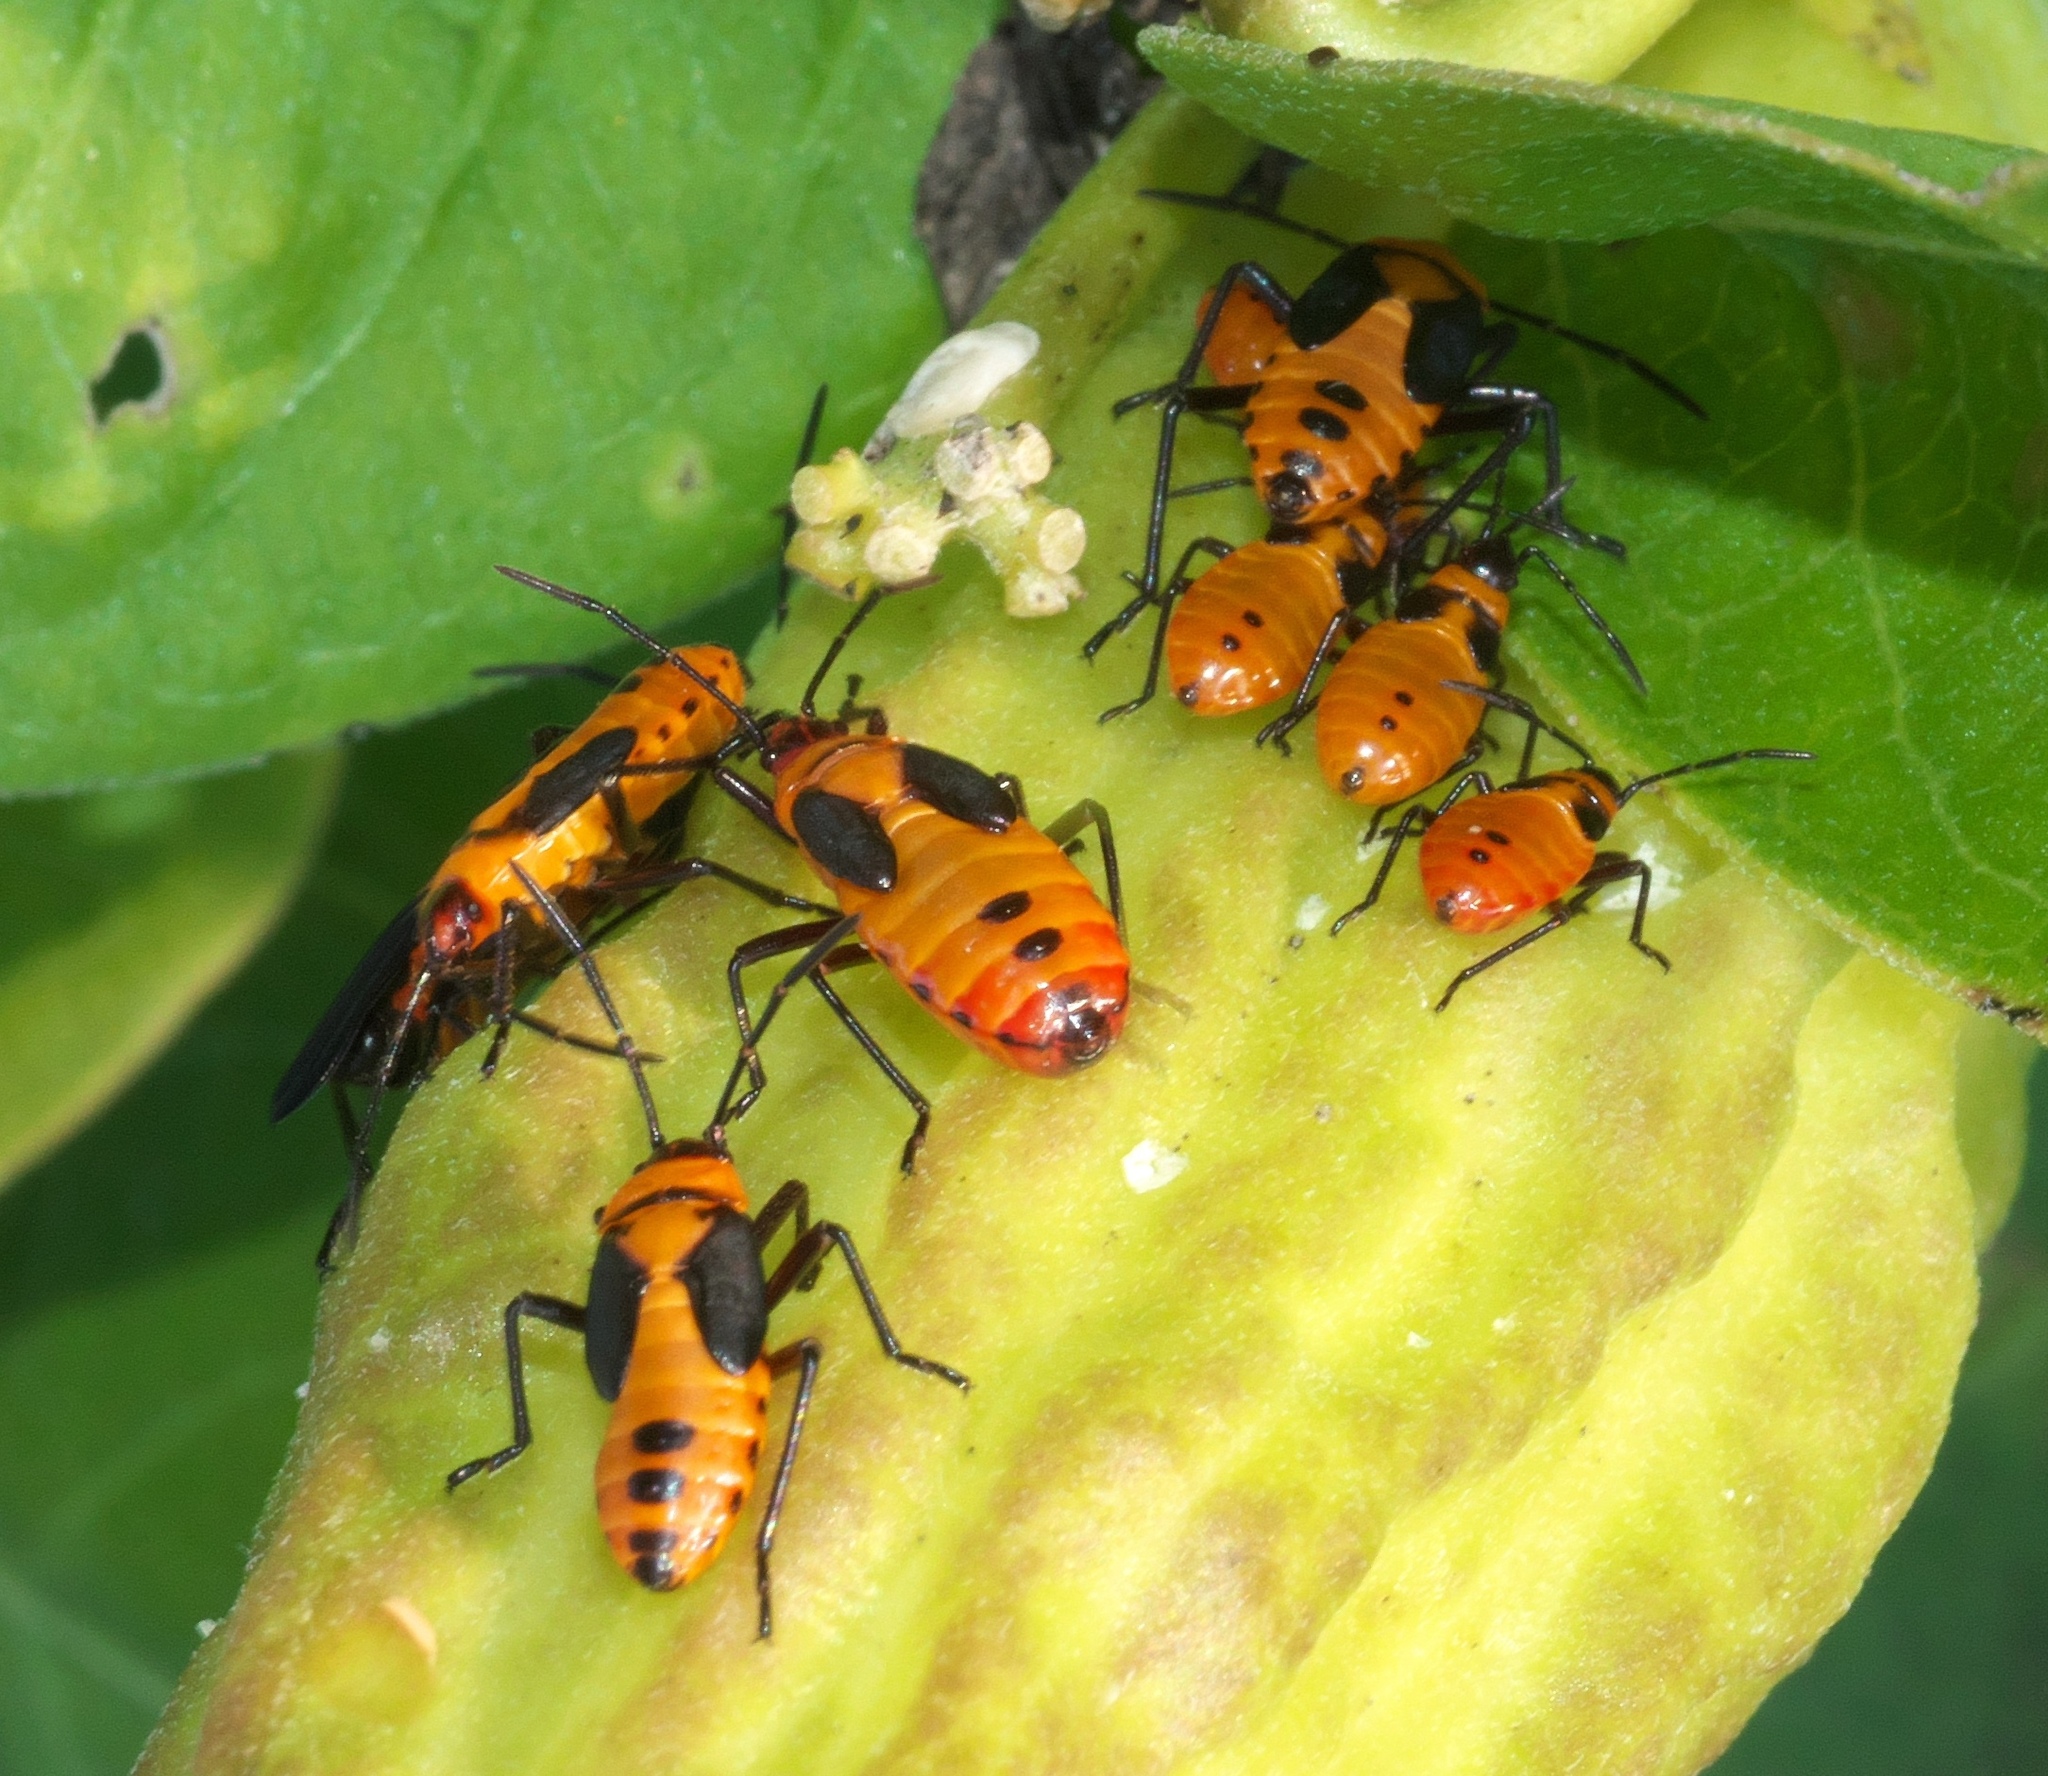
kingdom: Animalia
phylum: Arthropoda
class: Insecta
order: Hemiptera
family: Lygaeidae
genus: Oncopeltus
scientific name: Oncopeltus fasciatus
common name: Large milkweed bug
